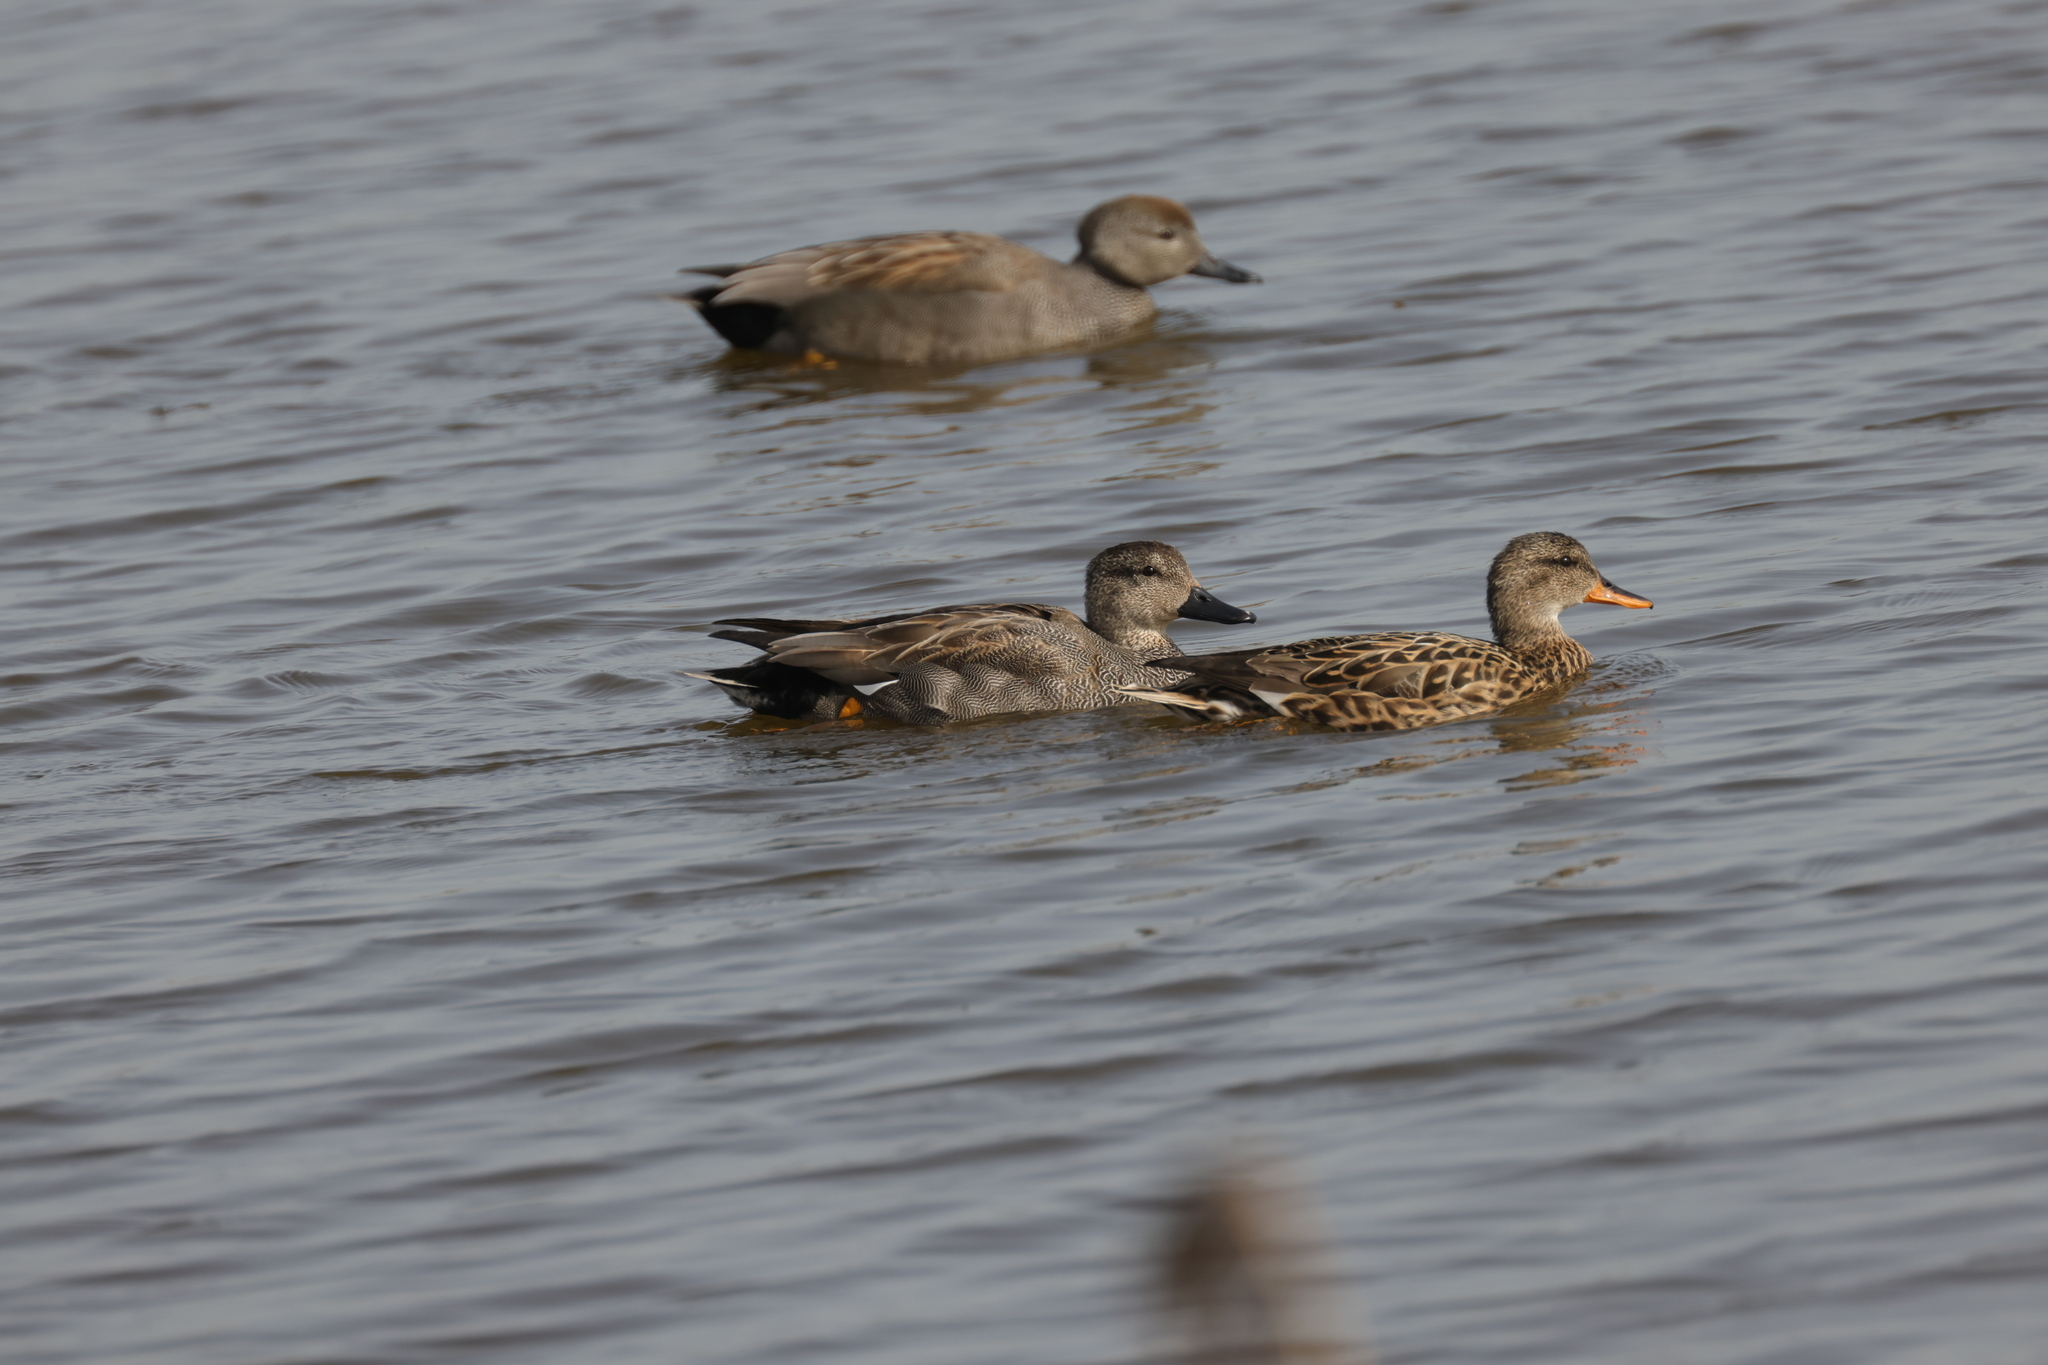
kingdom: Animalia
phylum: Chordata
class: Aves
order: Anseriformes
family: Anatidae
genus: Mareca
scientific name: Mareca strepera
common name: Gadwall
